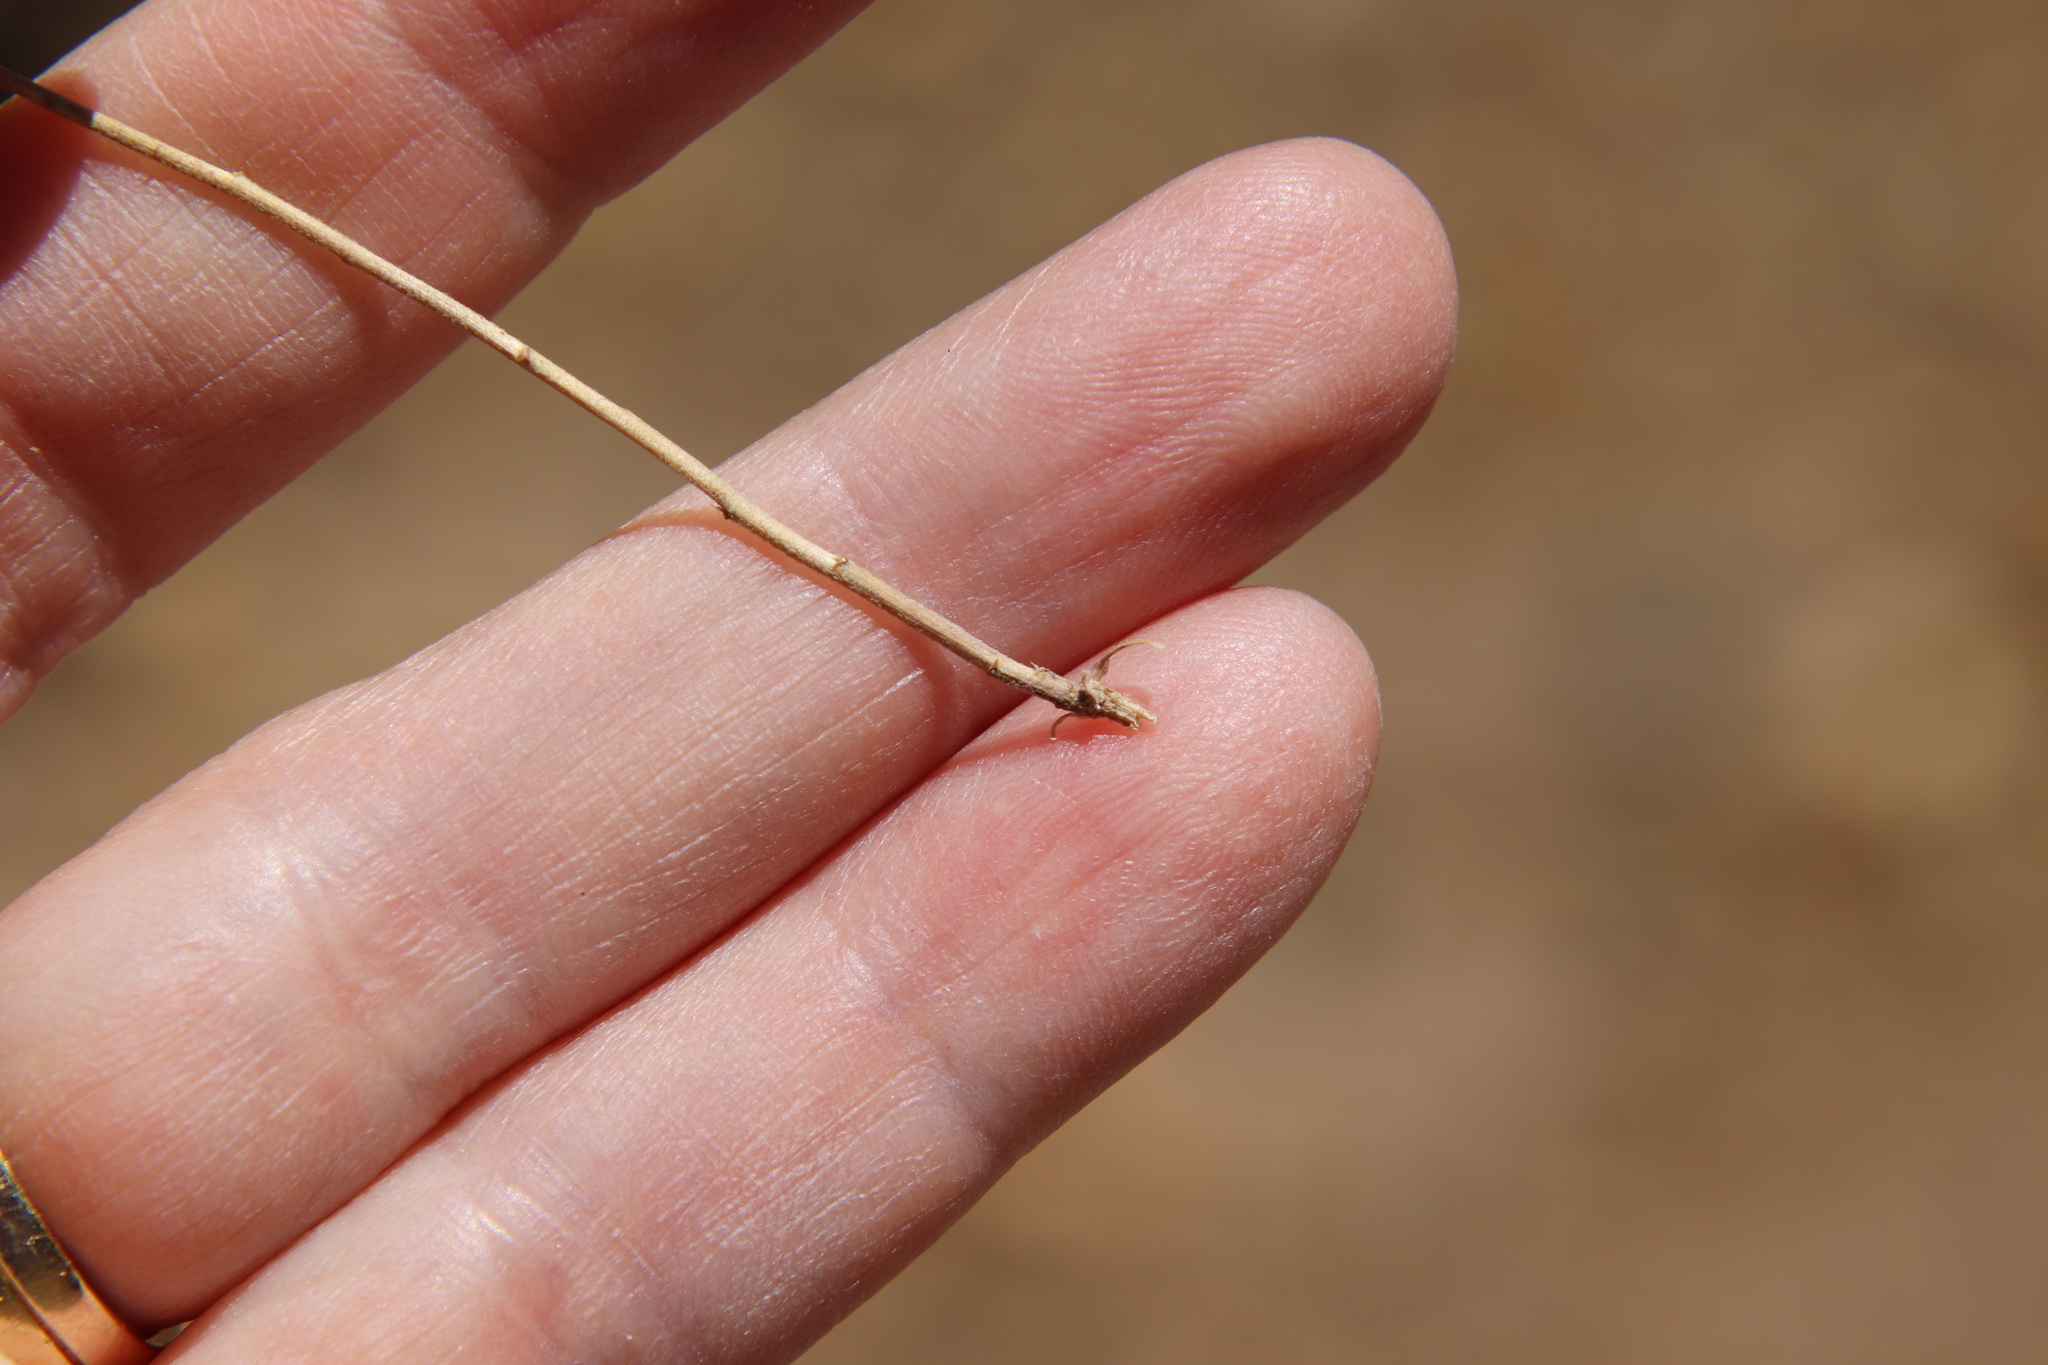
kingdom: Plantae
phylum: Tracheophyta
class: Magnoliopsida
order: Brassicales
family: Brassicaceae
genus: Lepidium
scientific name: Lepidium nitidum
